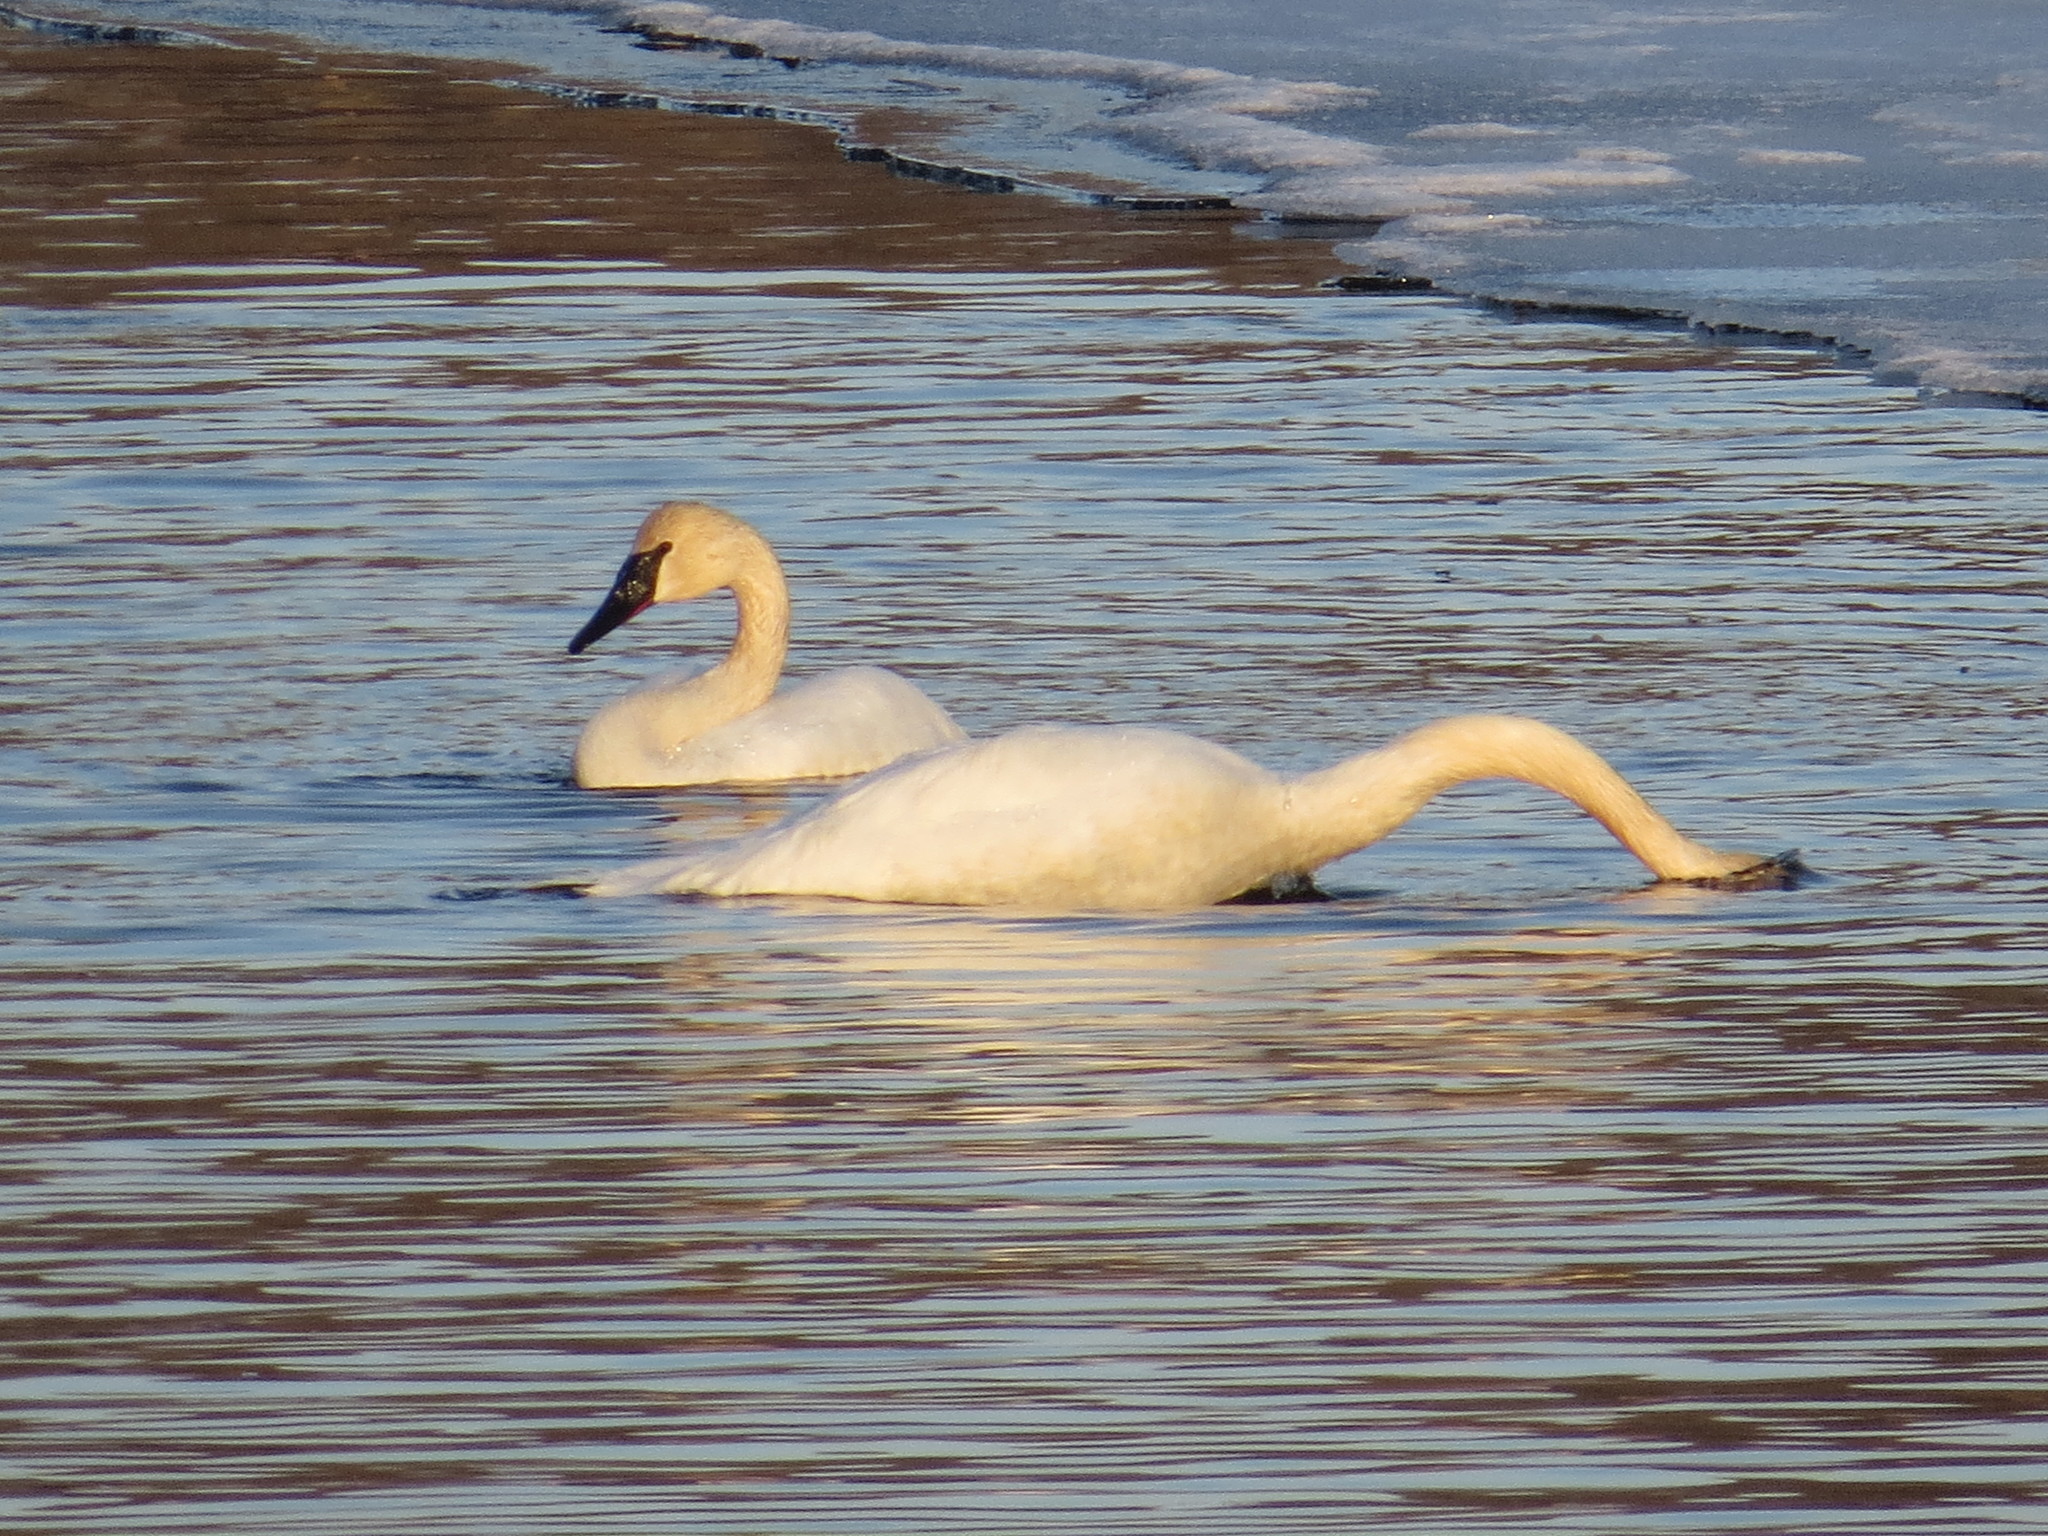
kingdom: Animalia
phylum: Chordata
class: Aves
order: Anseriformes
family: Anatidae
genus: Cygnus
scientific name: Cygnus buccinator
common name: Trumpeter swan
